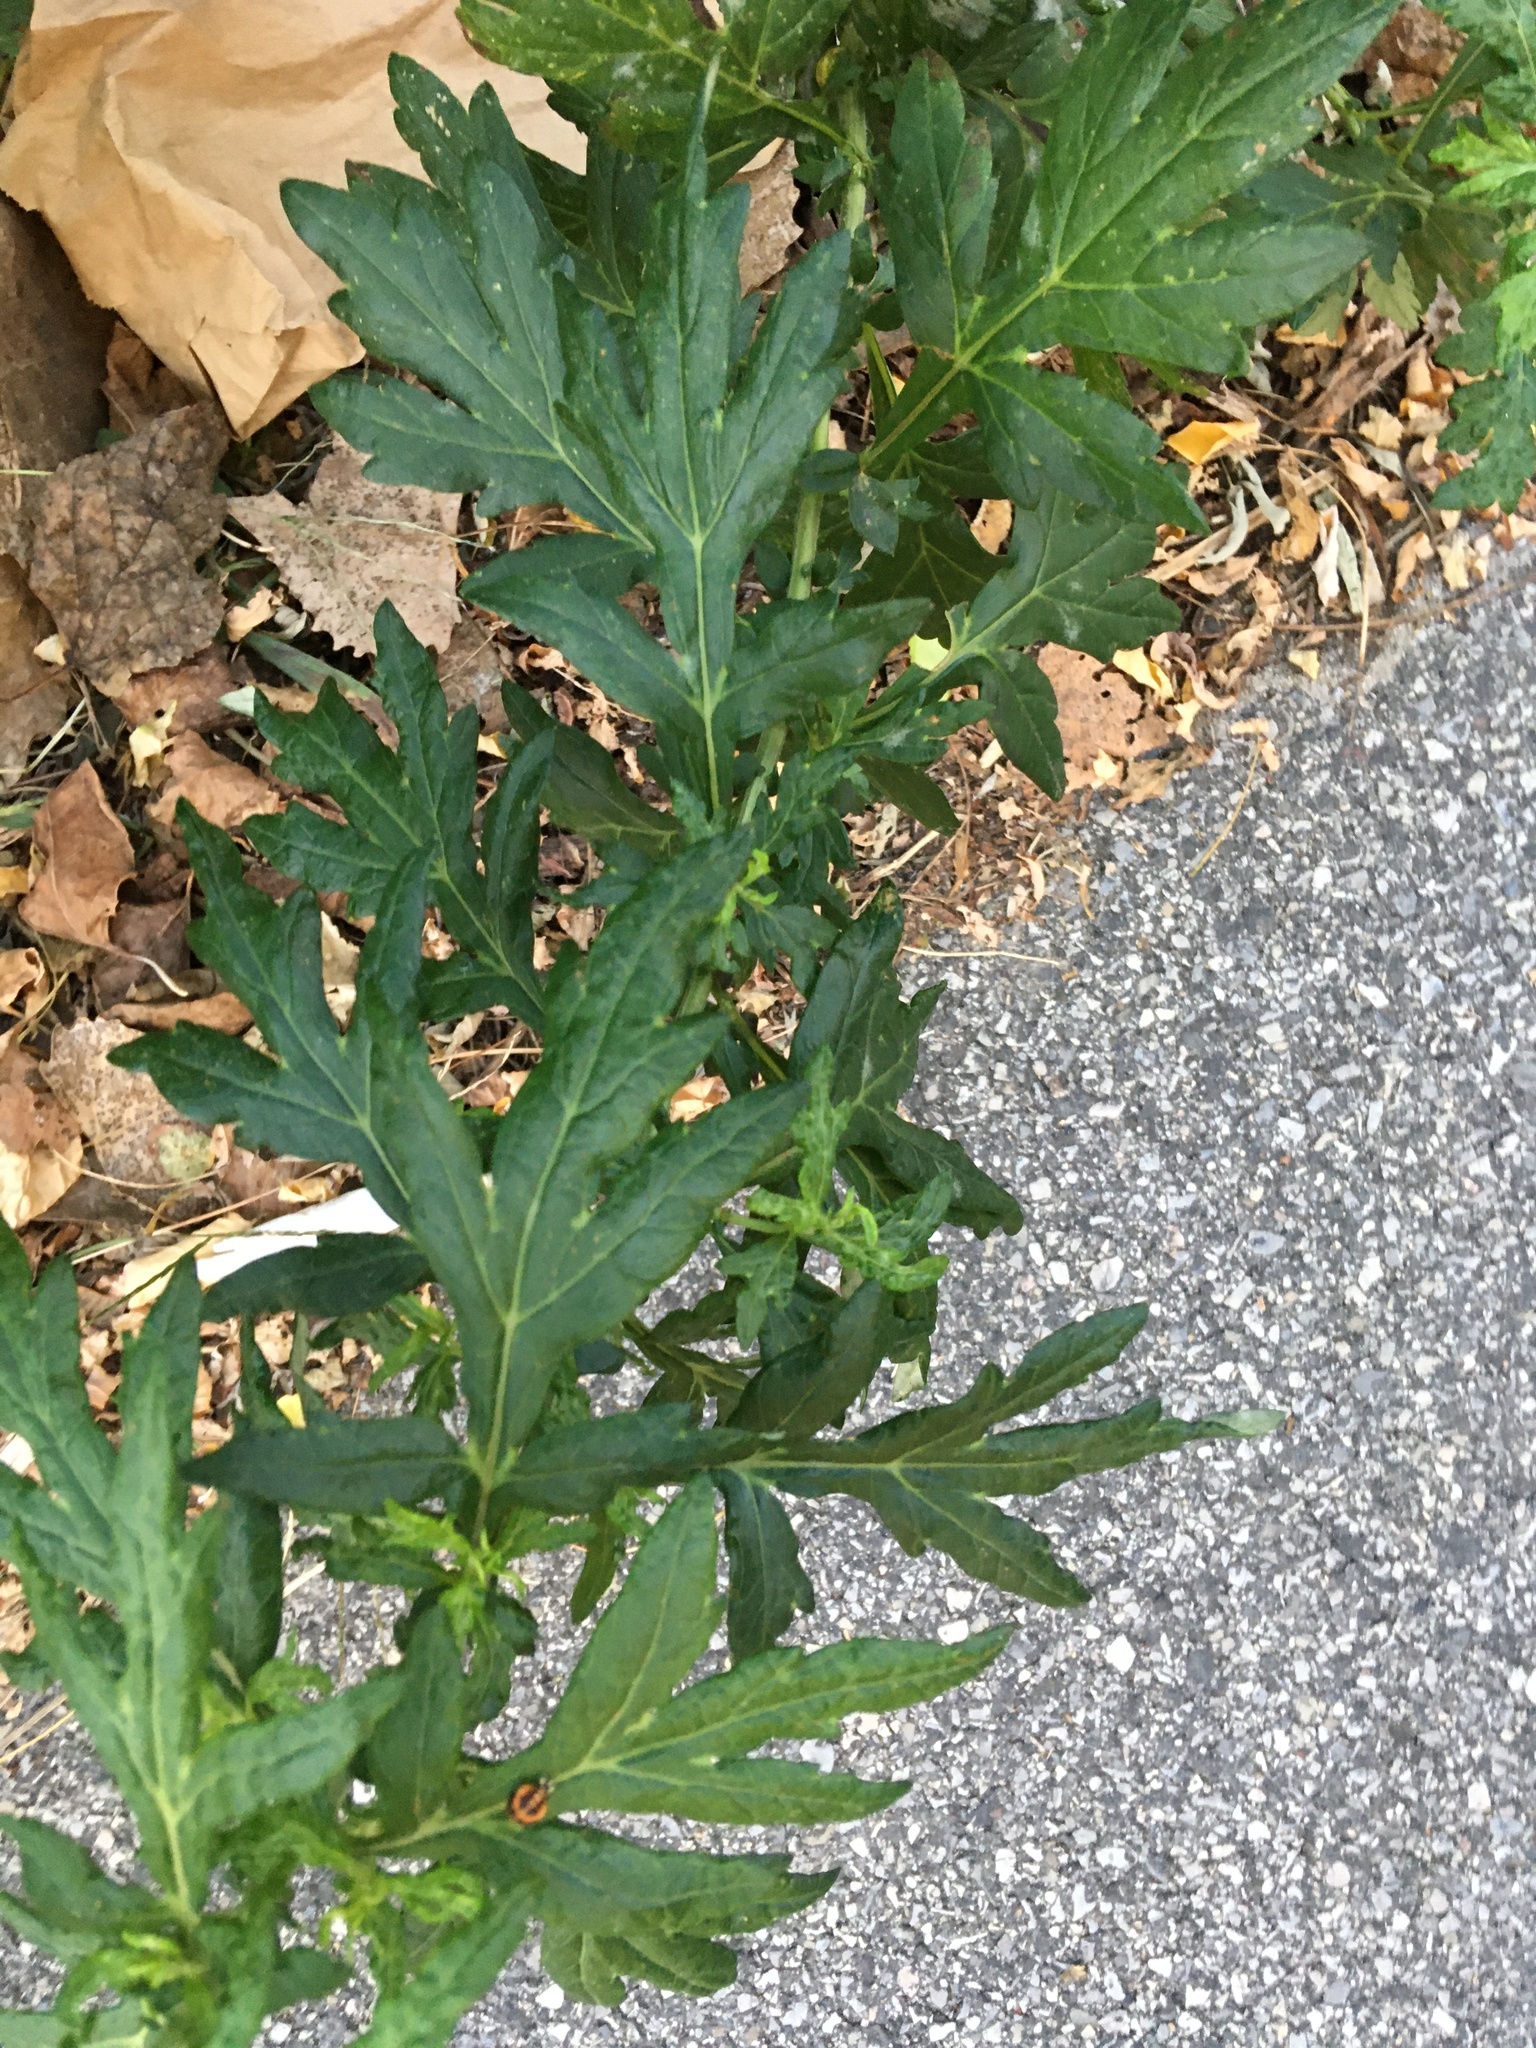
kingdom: Plantae
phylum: Tracheophyta
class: Magnoliopsida
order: Asterales
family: Asteraceae
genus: Artemisia
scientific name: Artemisia vulgaris
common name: Mugwort
